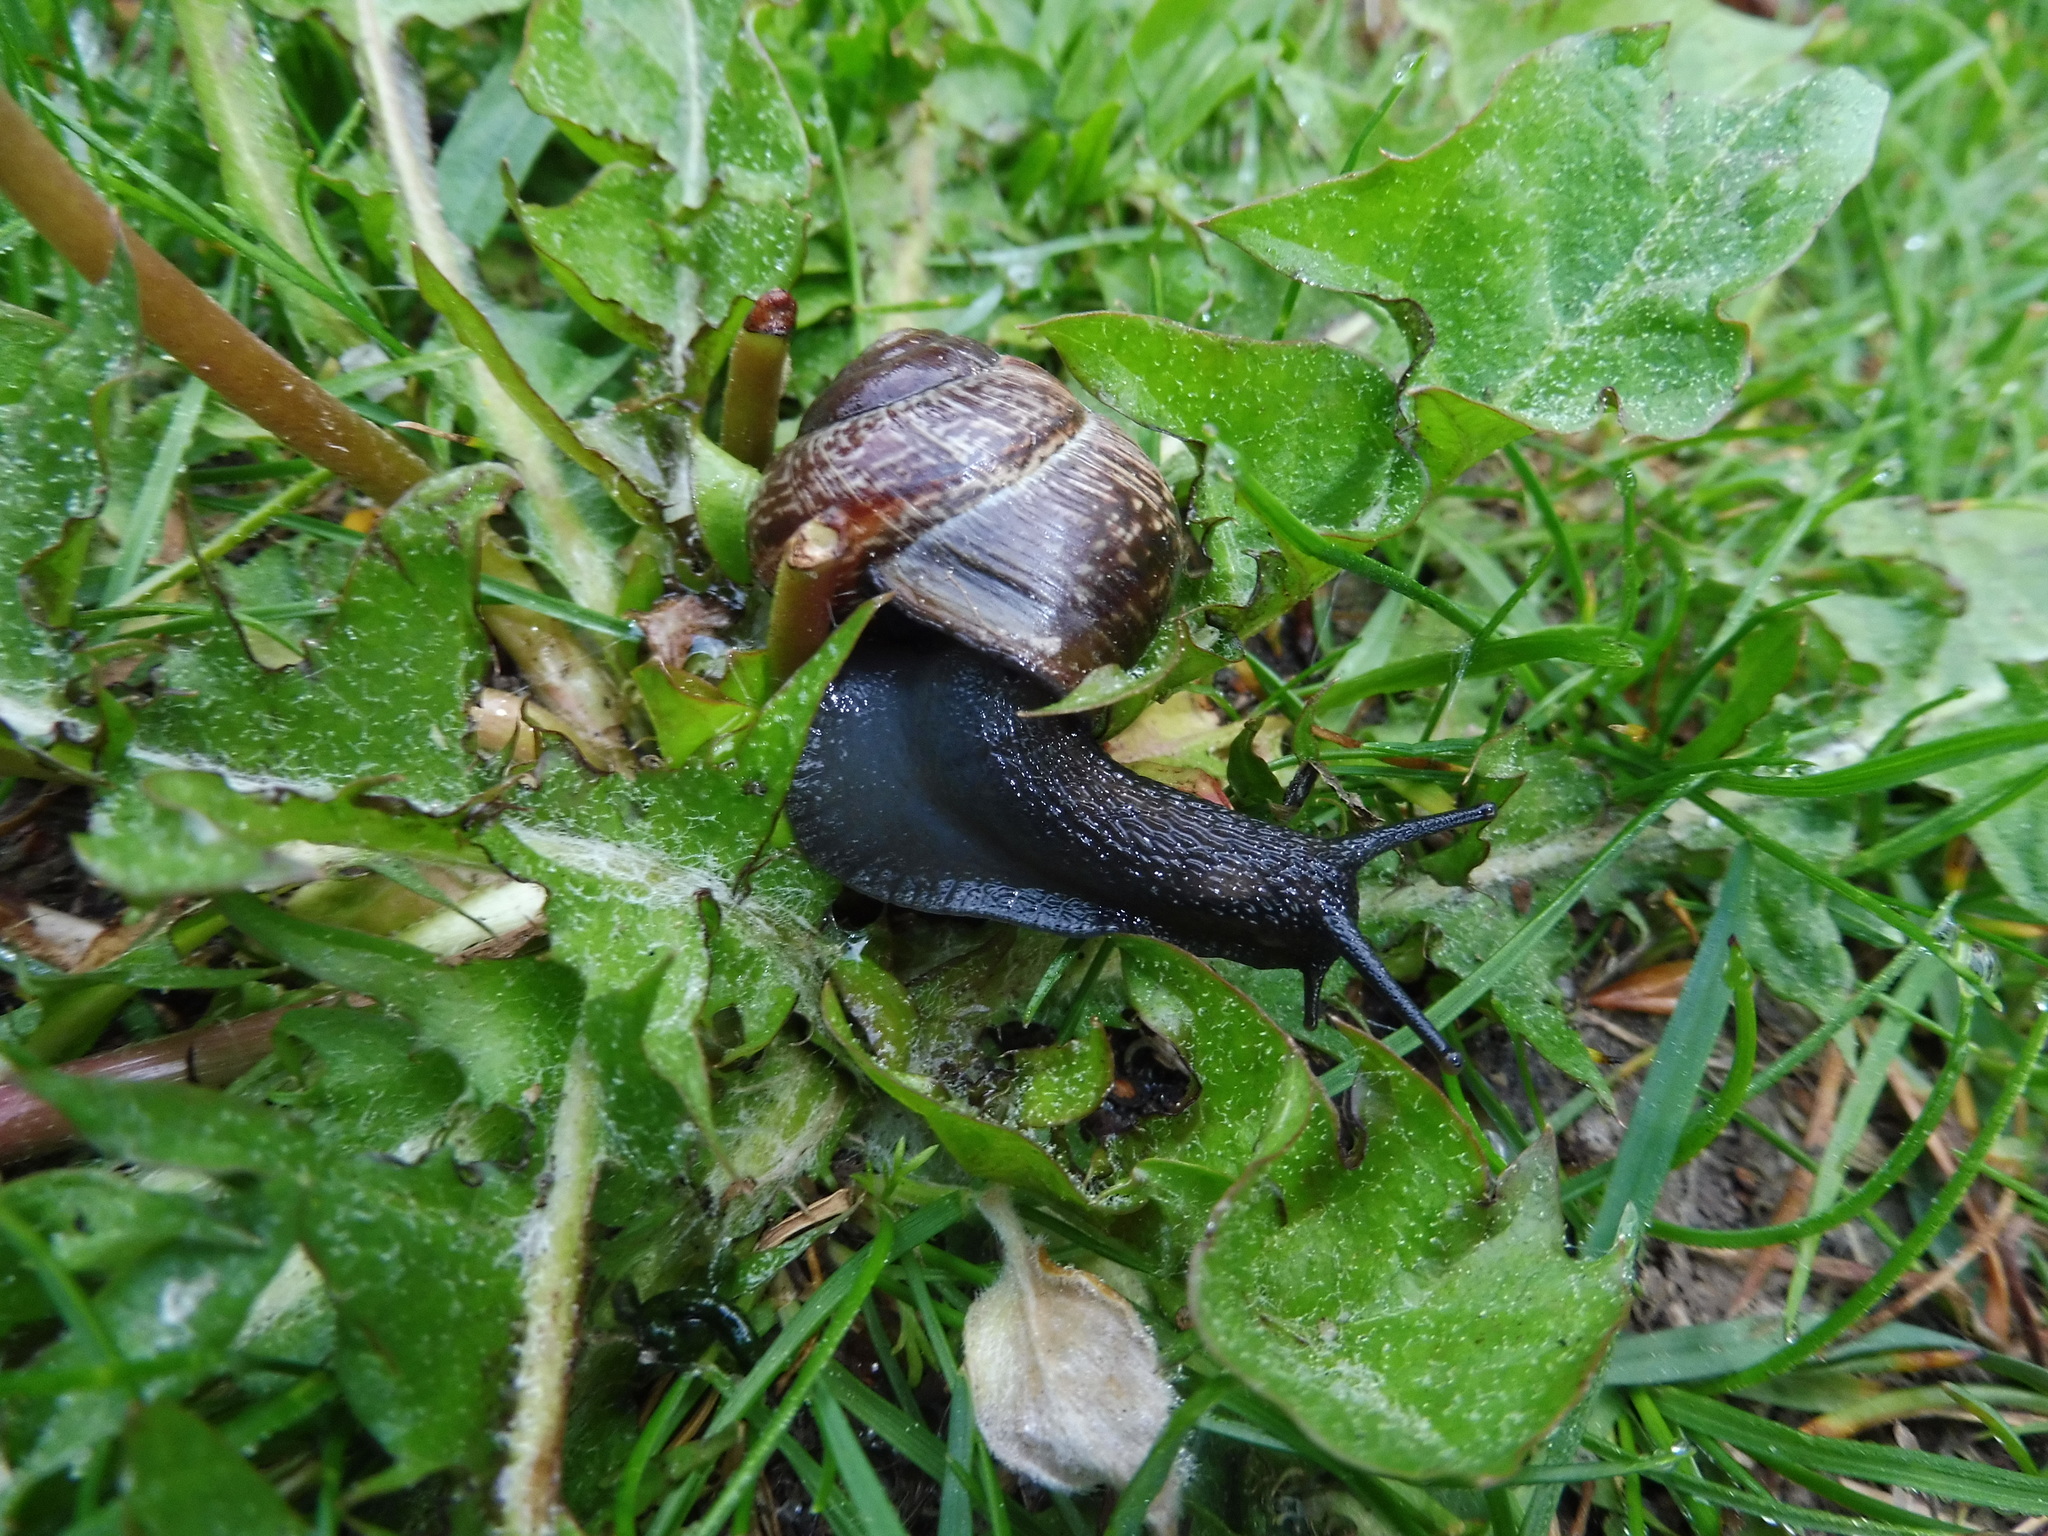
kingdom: Animalia
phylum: Mollusca
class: Gastropoda
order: Stylommatophora
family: Helicidae
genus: Arianta
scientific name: Arianta arbustorum
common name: Copse snail
